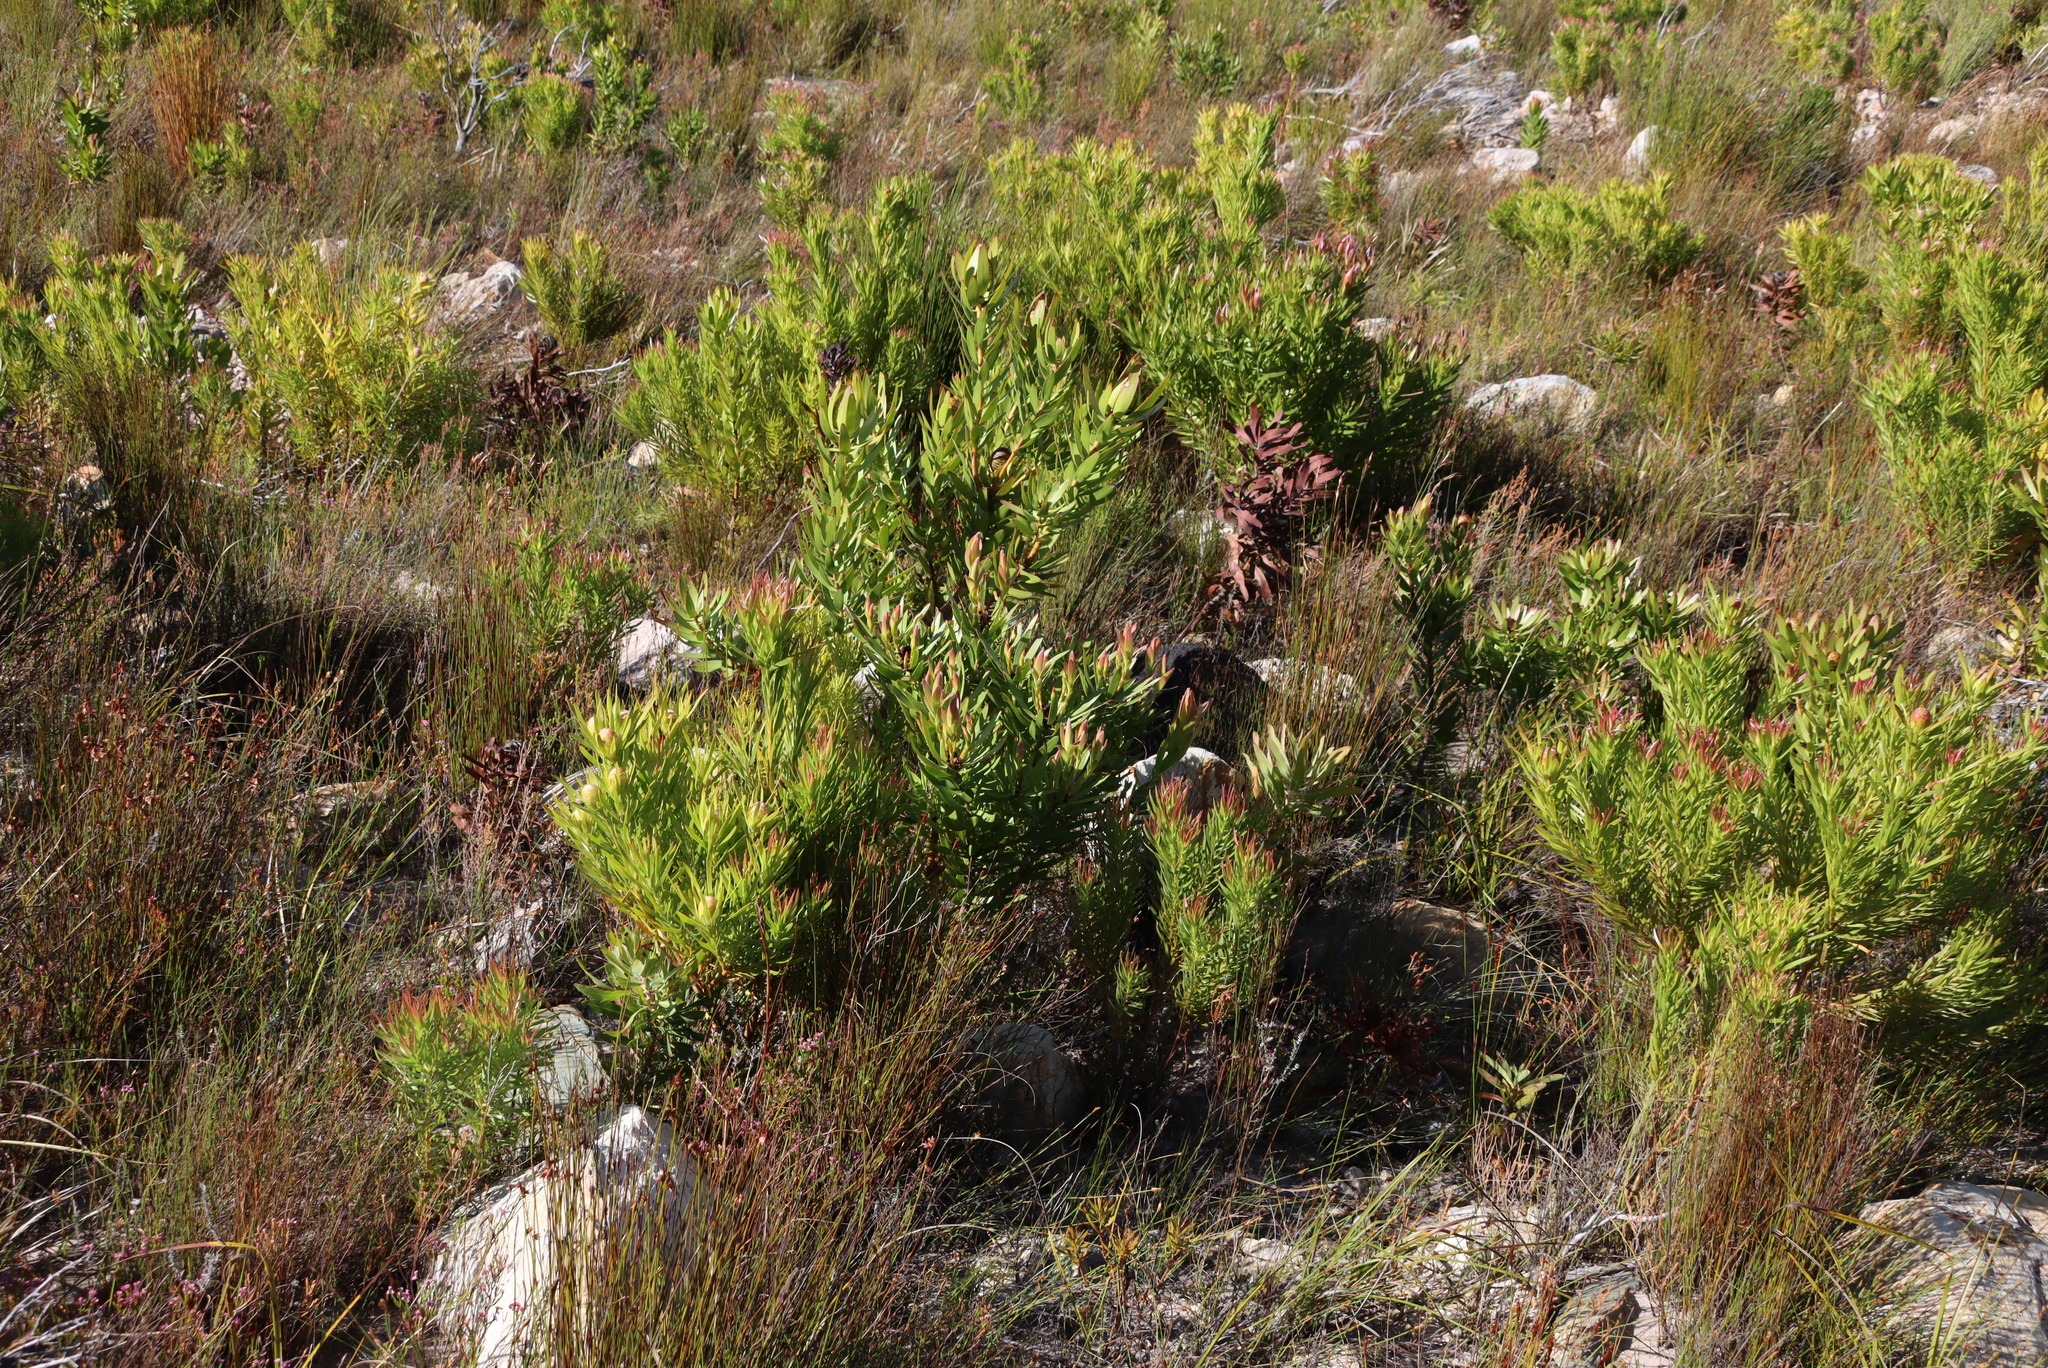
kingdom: Plantae
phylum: Tracheophyta
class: Magnoliopsida
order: Proteales
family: Proteaceae
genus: Protea
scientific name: Protea laurifolia
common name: Grey-leaf sugarbsh
